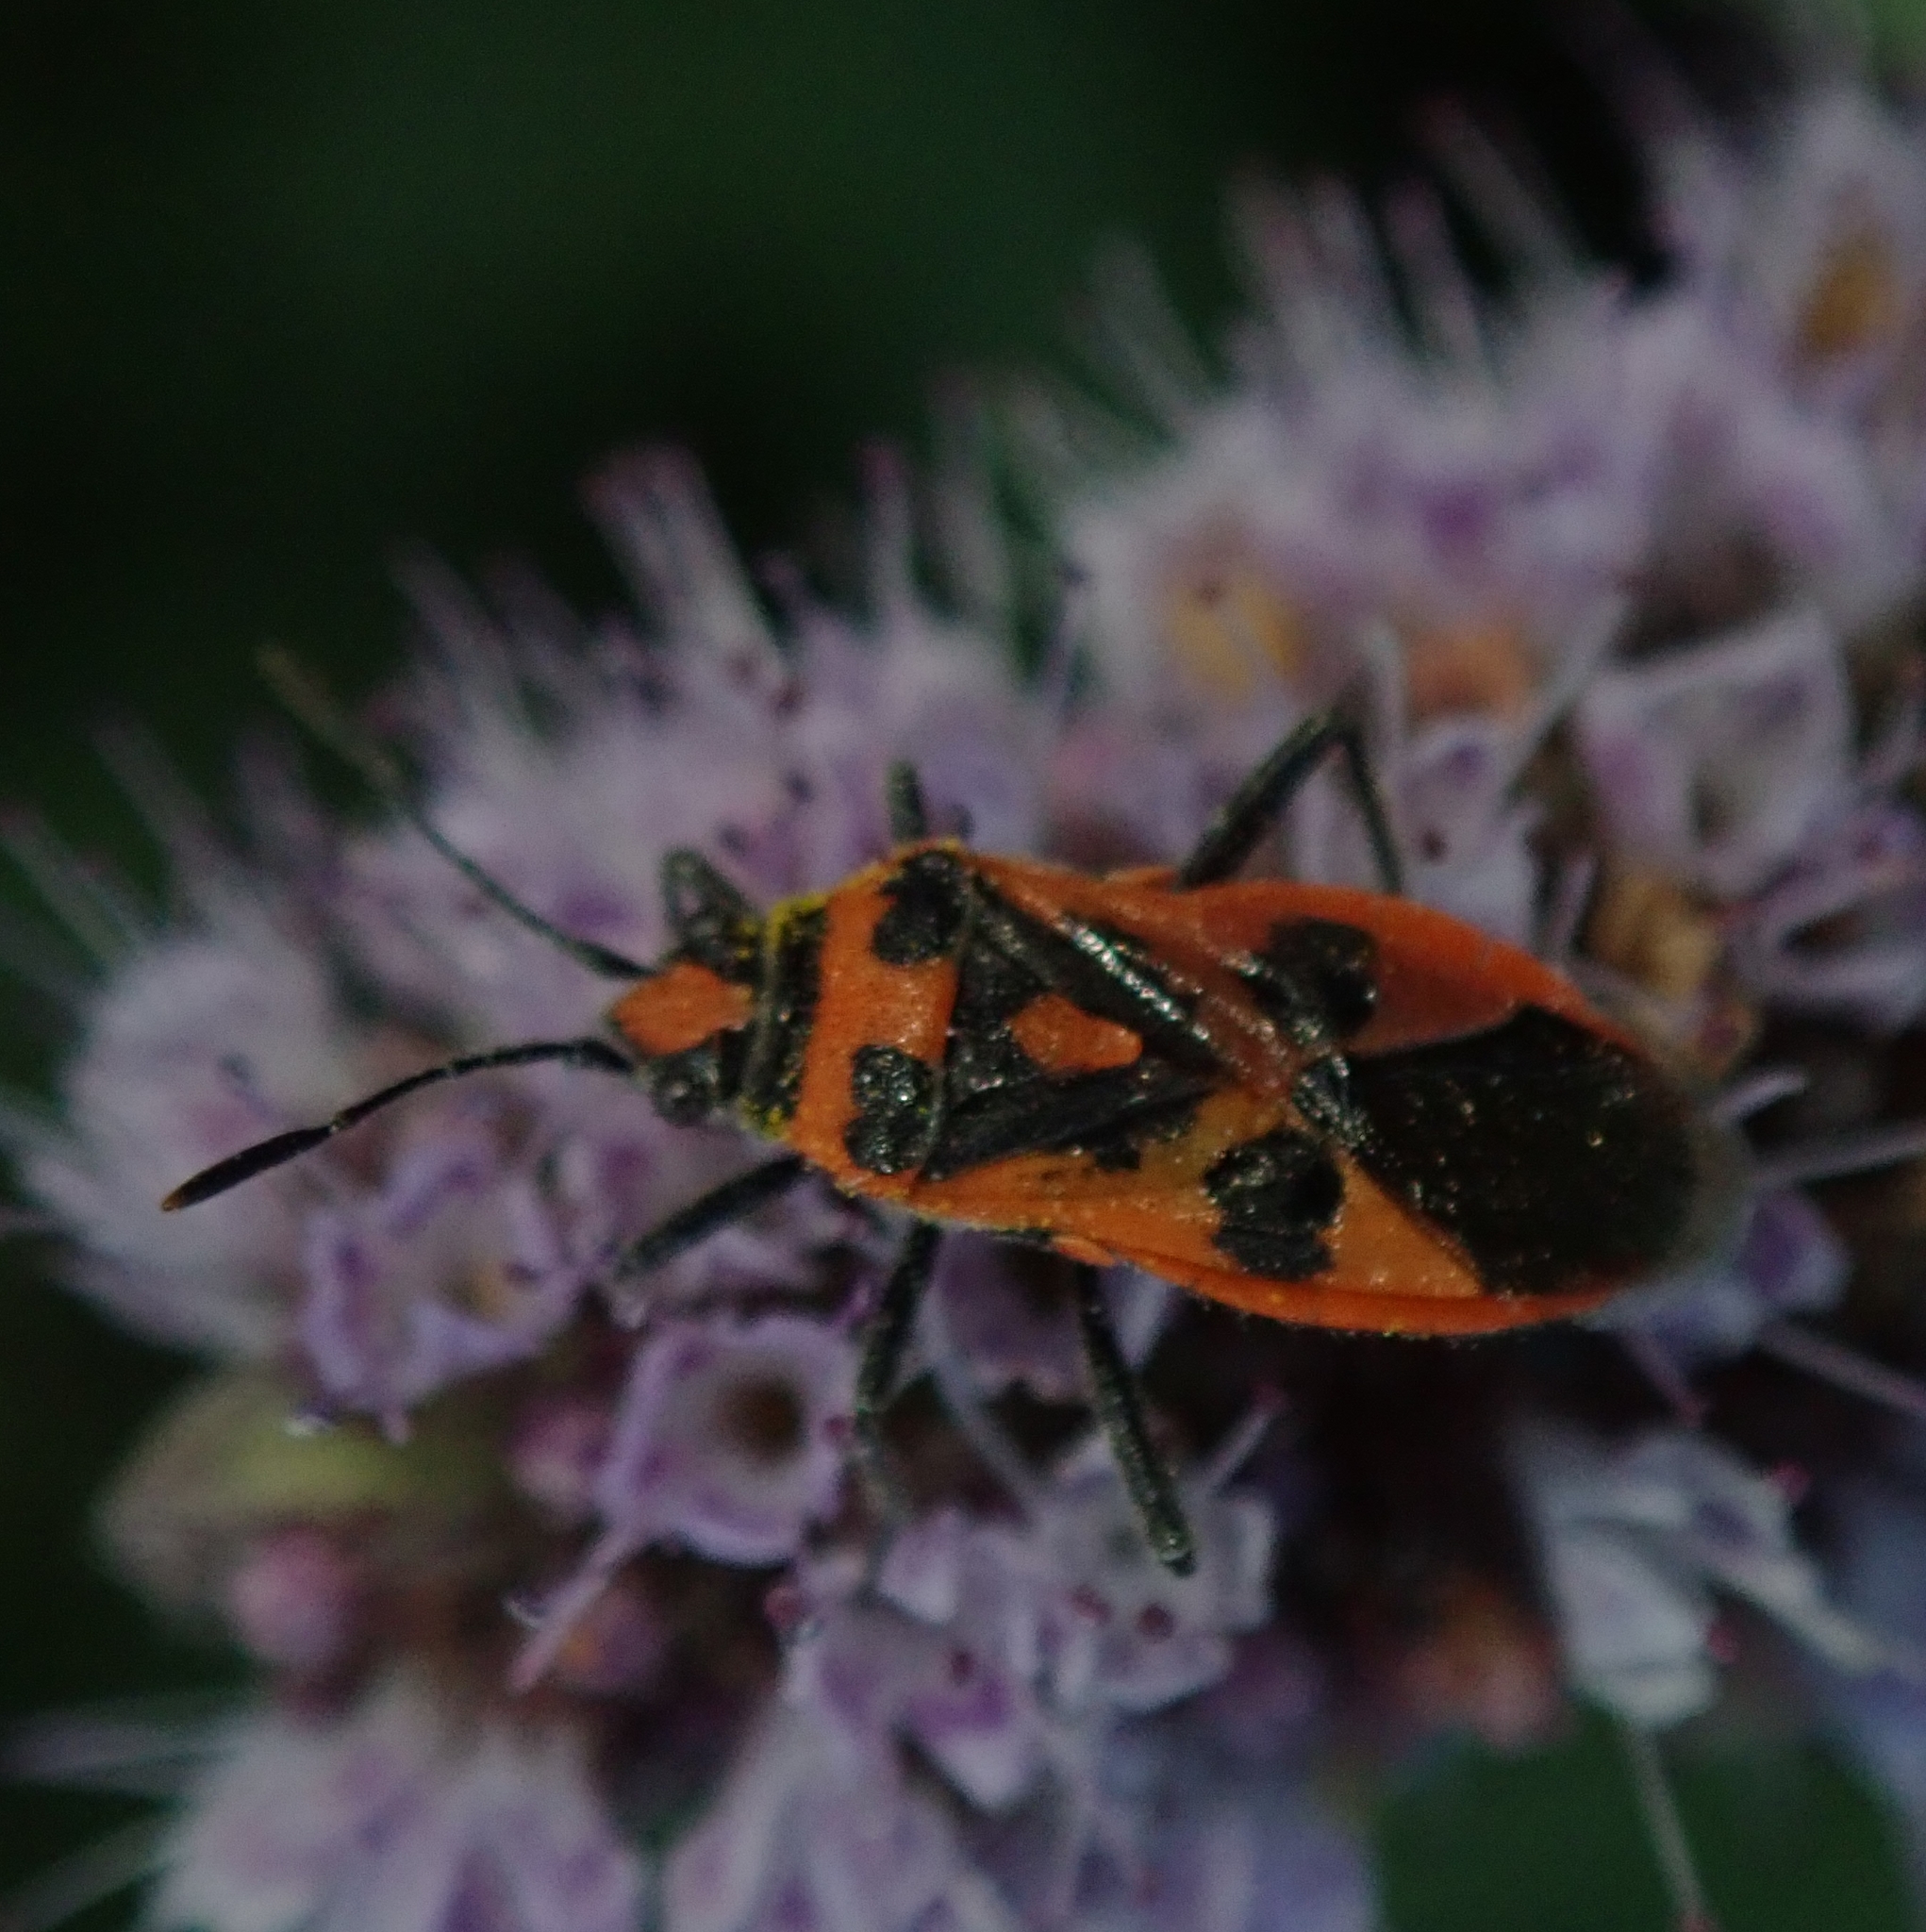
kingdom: Animalia
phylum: Arthropoda
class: Insecta
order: Hemiptera
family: Rhopalidae
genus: Corizus
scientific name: Corizus hyoscyami
